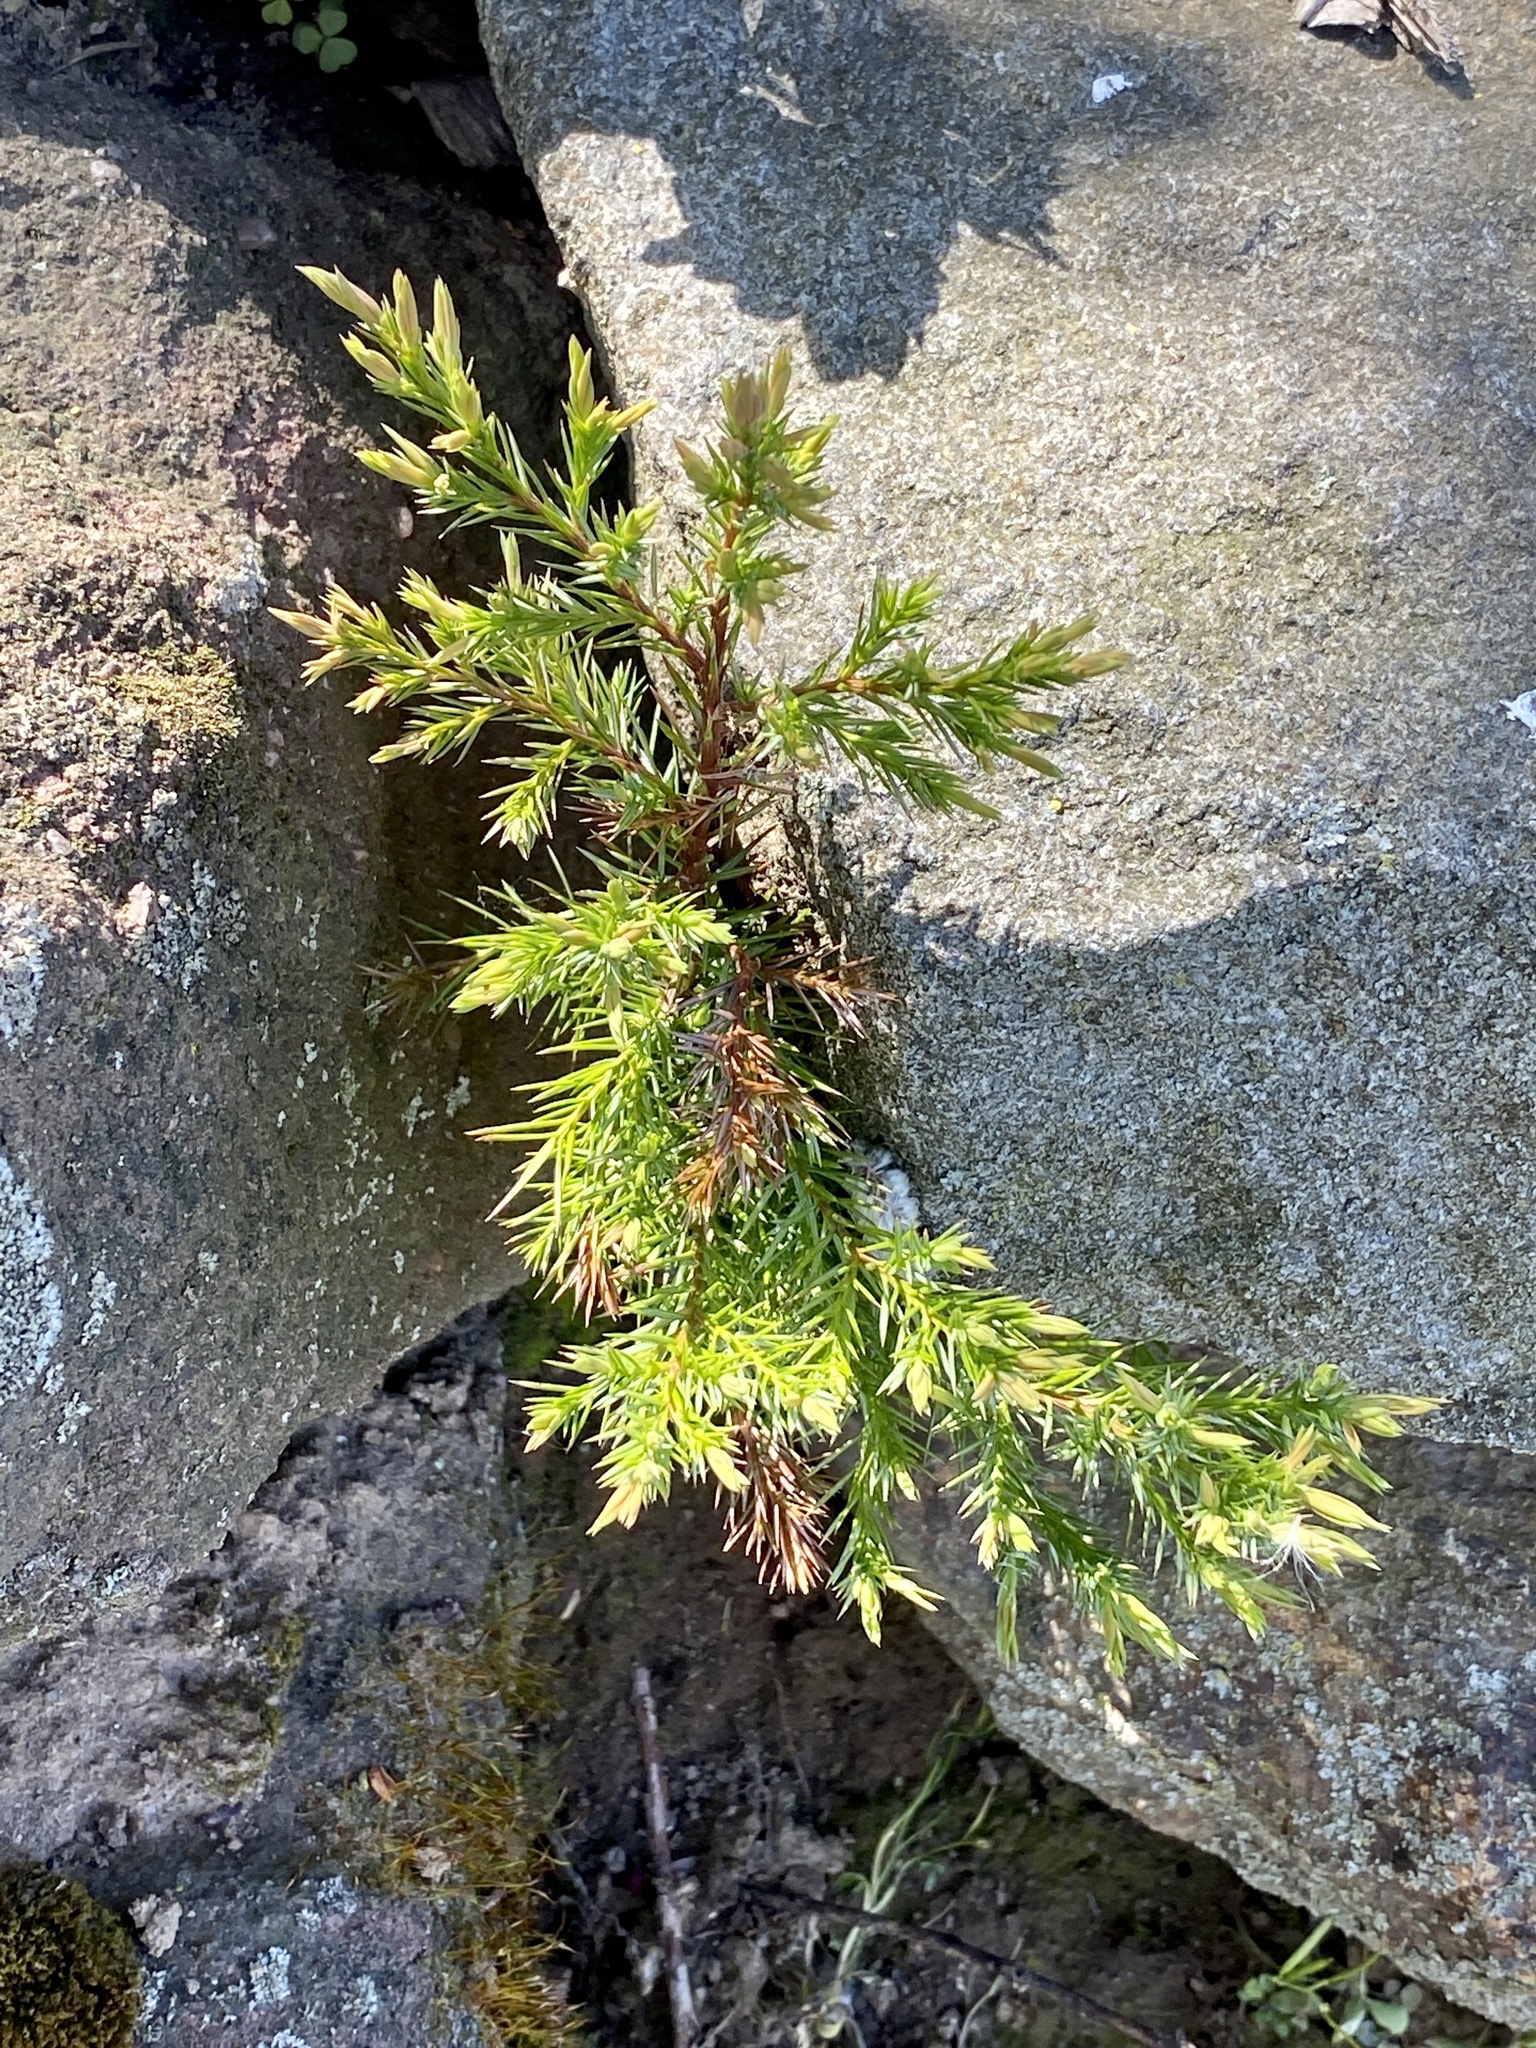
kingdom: Plantae
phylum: Tracheophyta
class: Pinopsida
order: Pinales
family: Cupressaceae
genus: Juniperus
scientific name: Juniperus virginiana
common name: Red juniper
